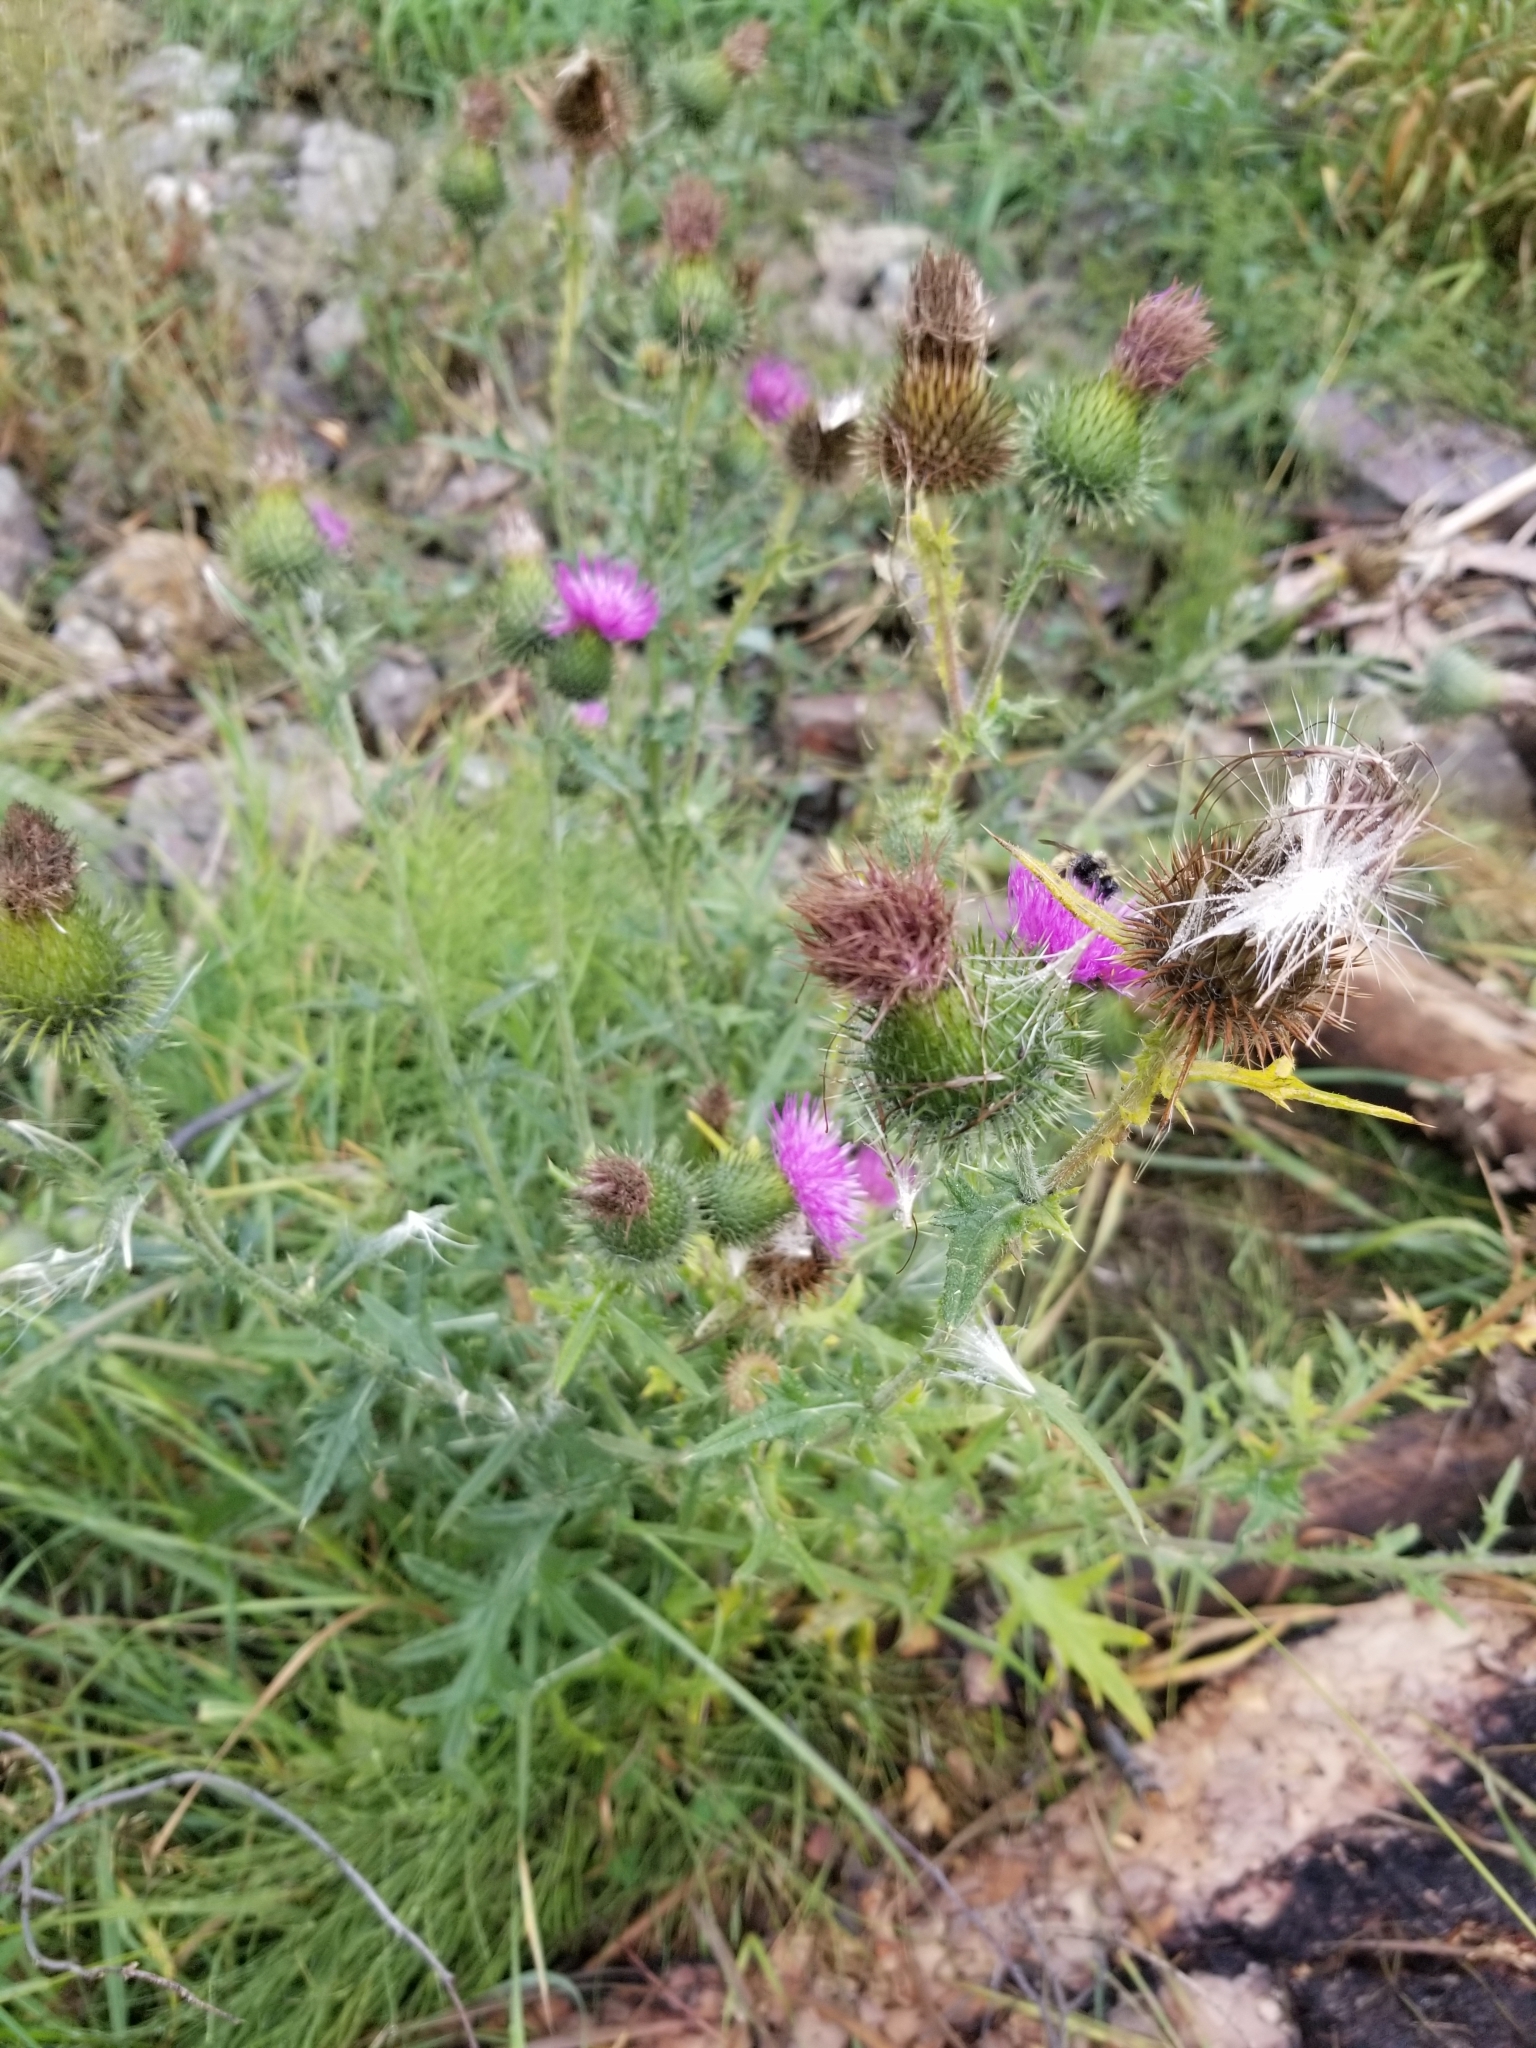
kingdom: Plantae
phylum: Tracheophyta
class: Magnoliopsida
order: Asterales
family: Asteraceae
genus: Cirsium
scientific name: Cirsium vulgare
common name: Bull thistle
